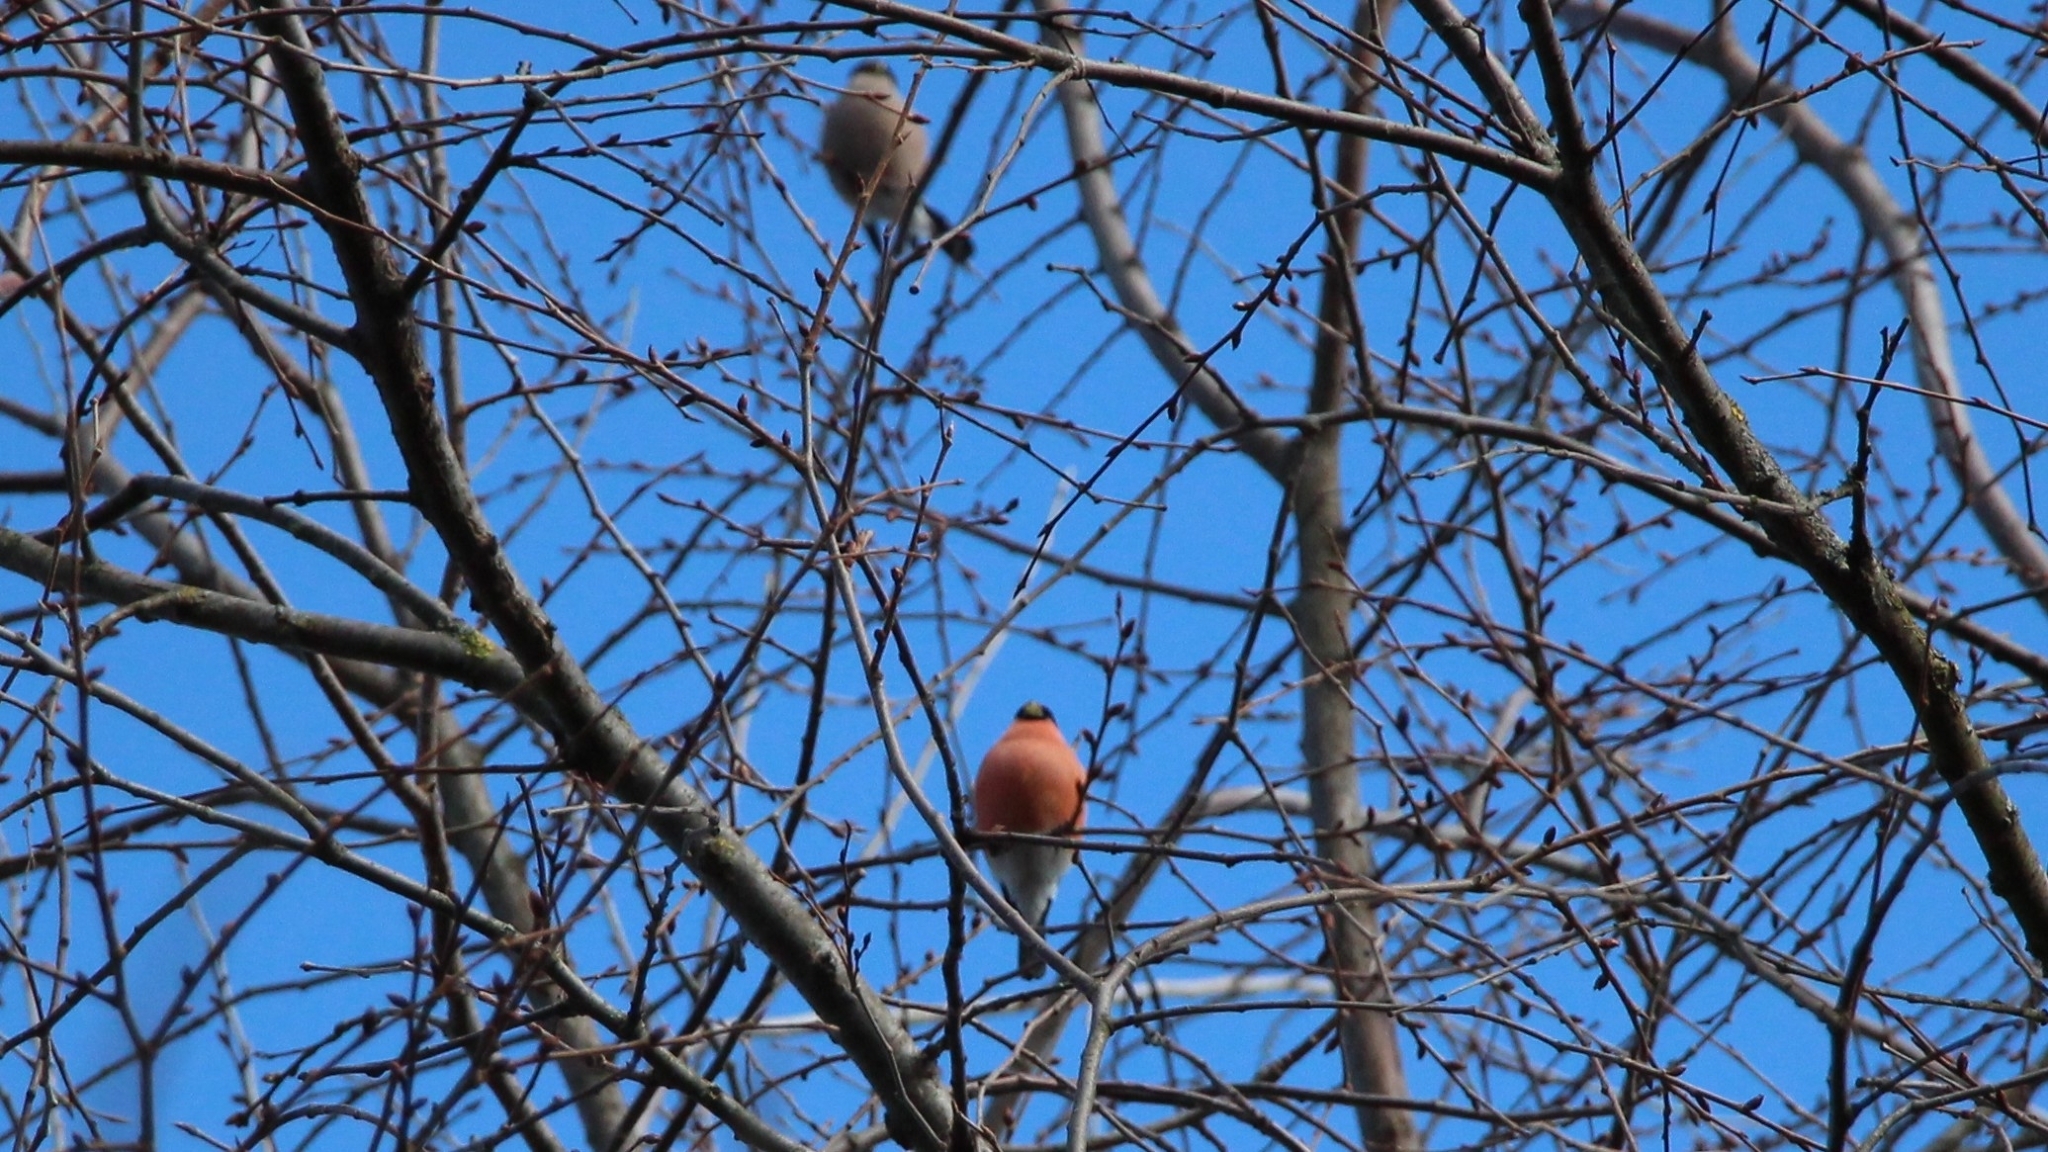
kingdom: Animalia
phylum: Chordata
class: Aves
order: Passeriformes
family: Fringillidae
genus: Pyrrhula
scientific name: Pyrrhula pyrrhula
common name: Eurasian bullfinch
